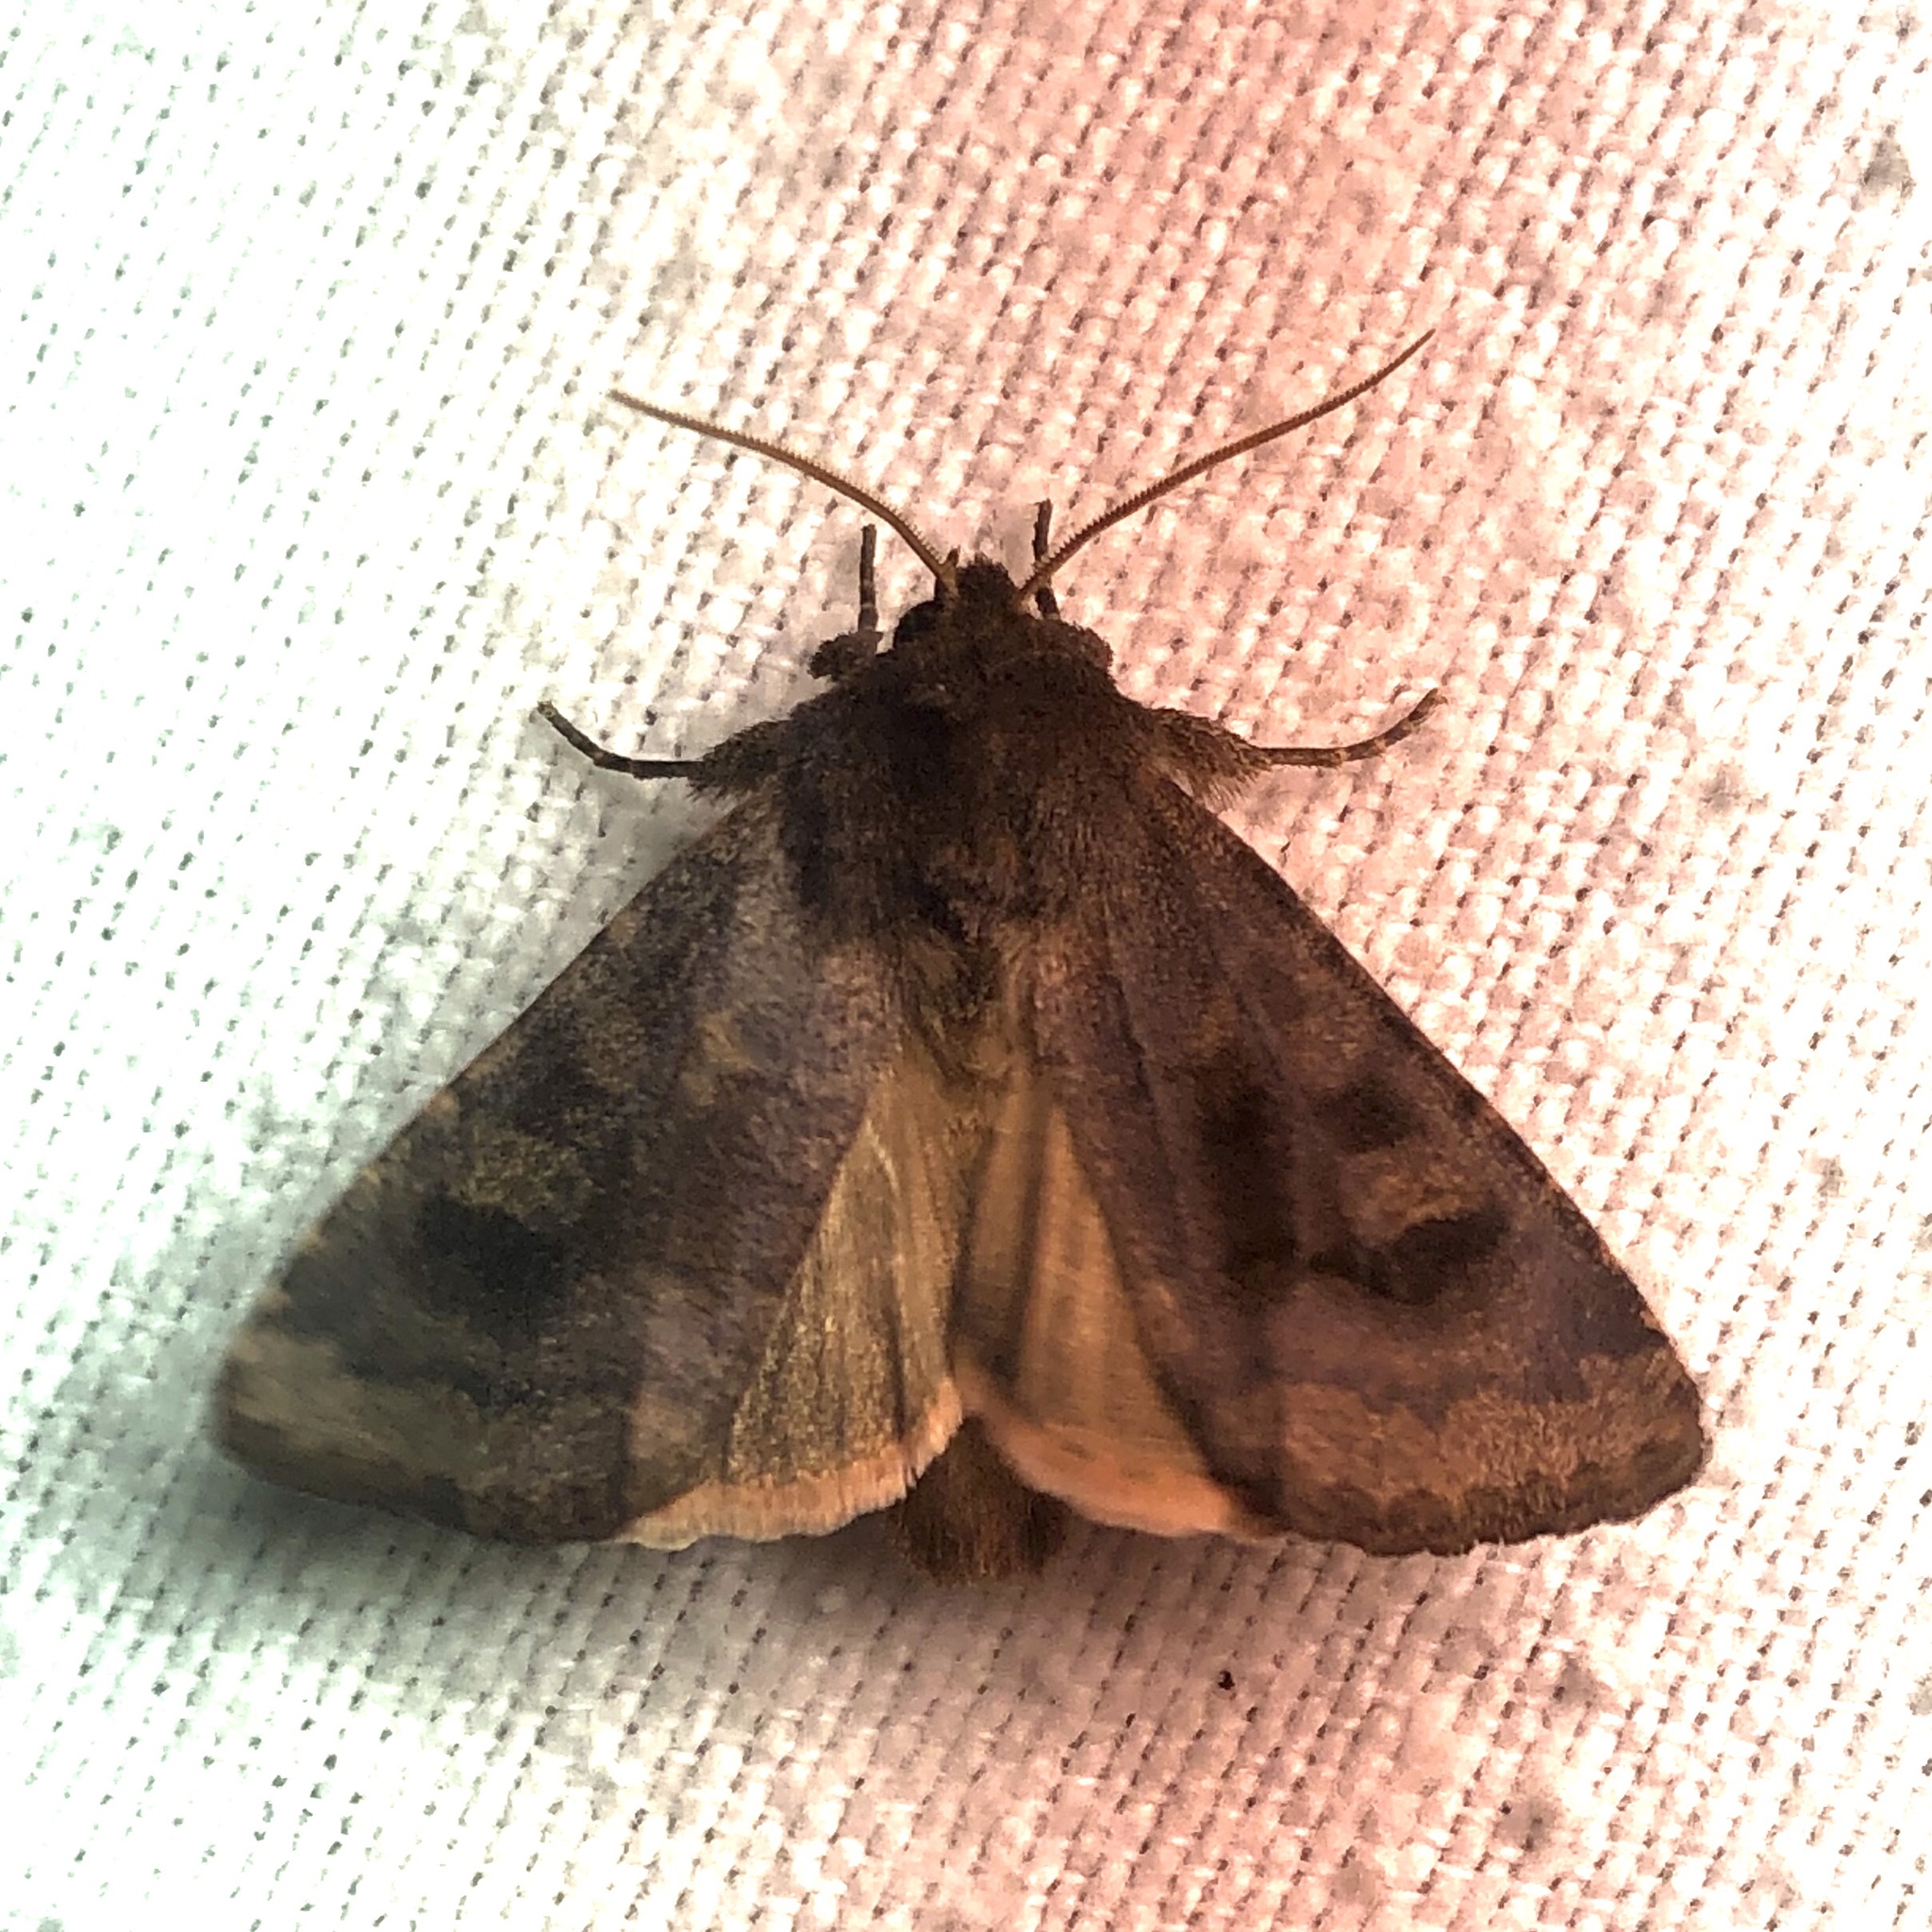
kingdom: Animalia
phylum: Arthropoda
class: Insecta
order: Lepidoptera
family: Noctuidae
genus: Nephelodes
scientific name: Nephelodes minians
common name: Bronzed cutworm
